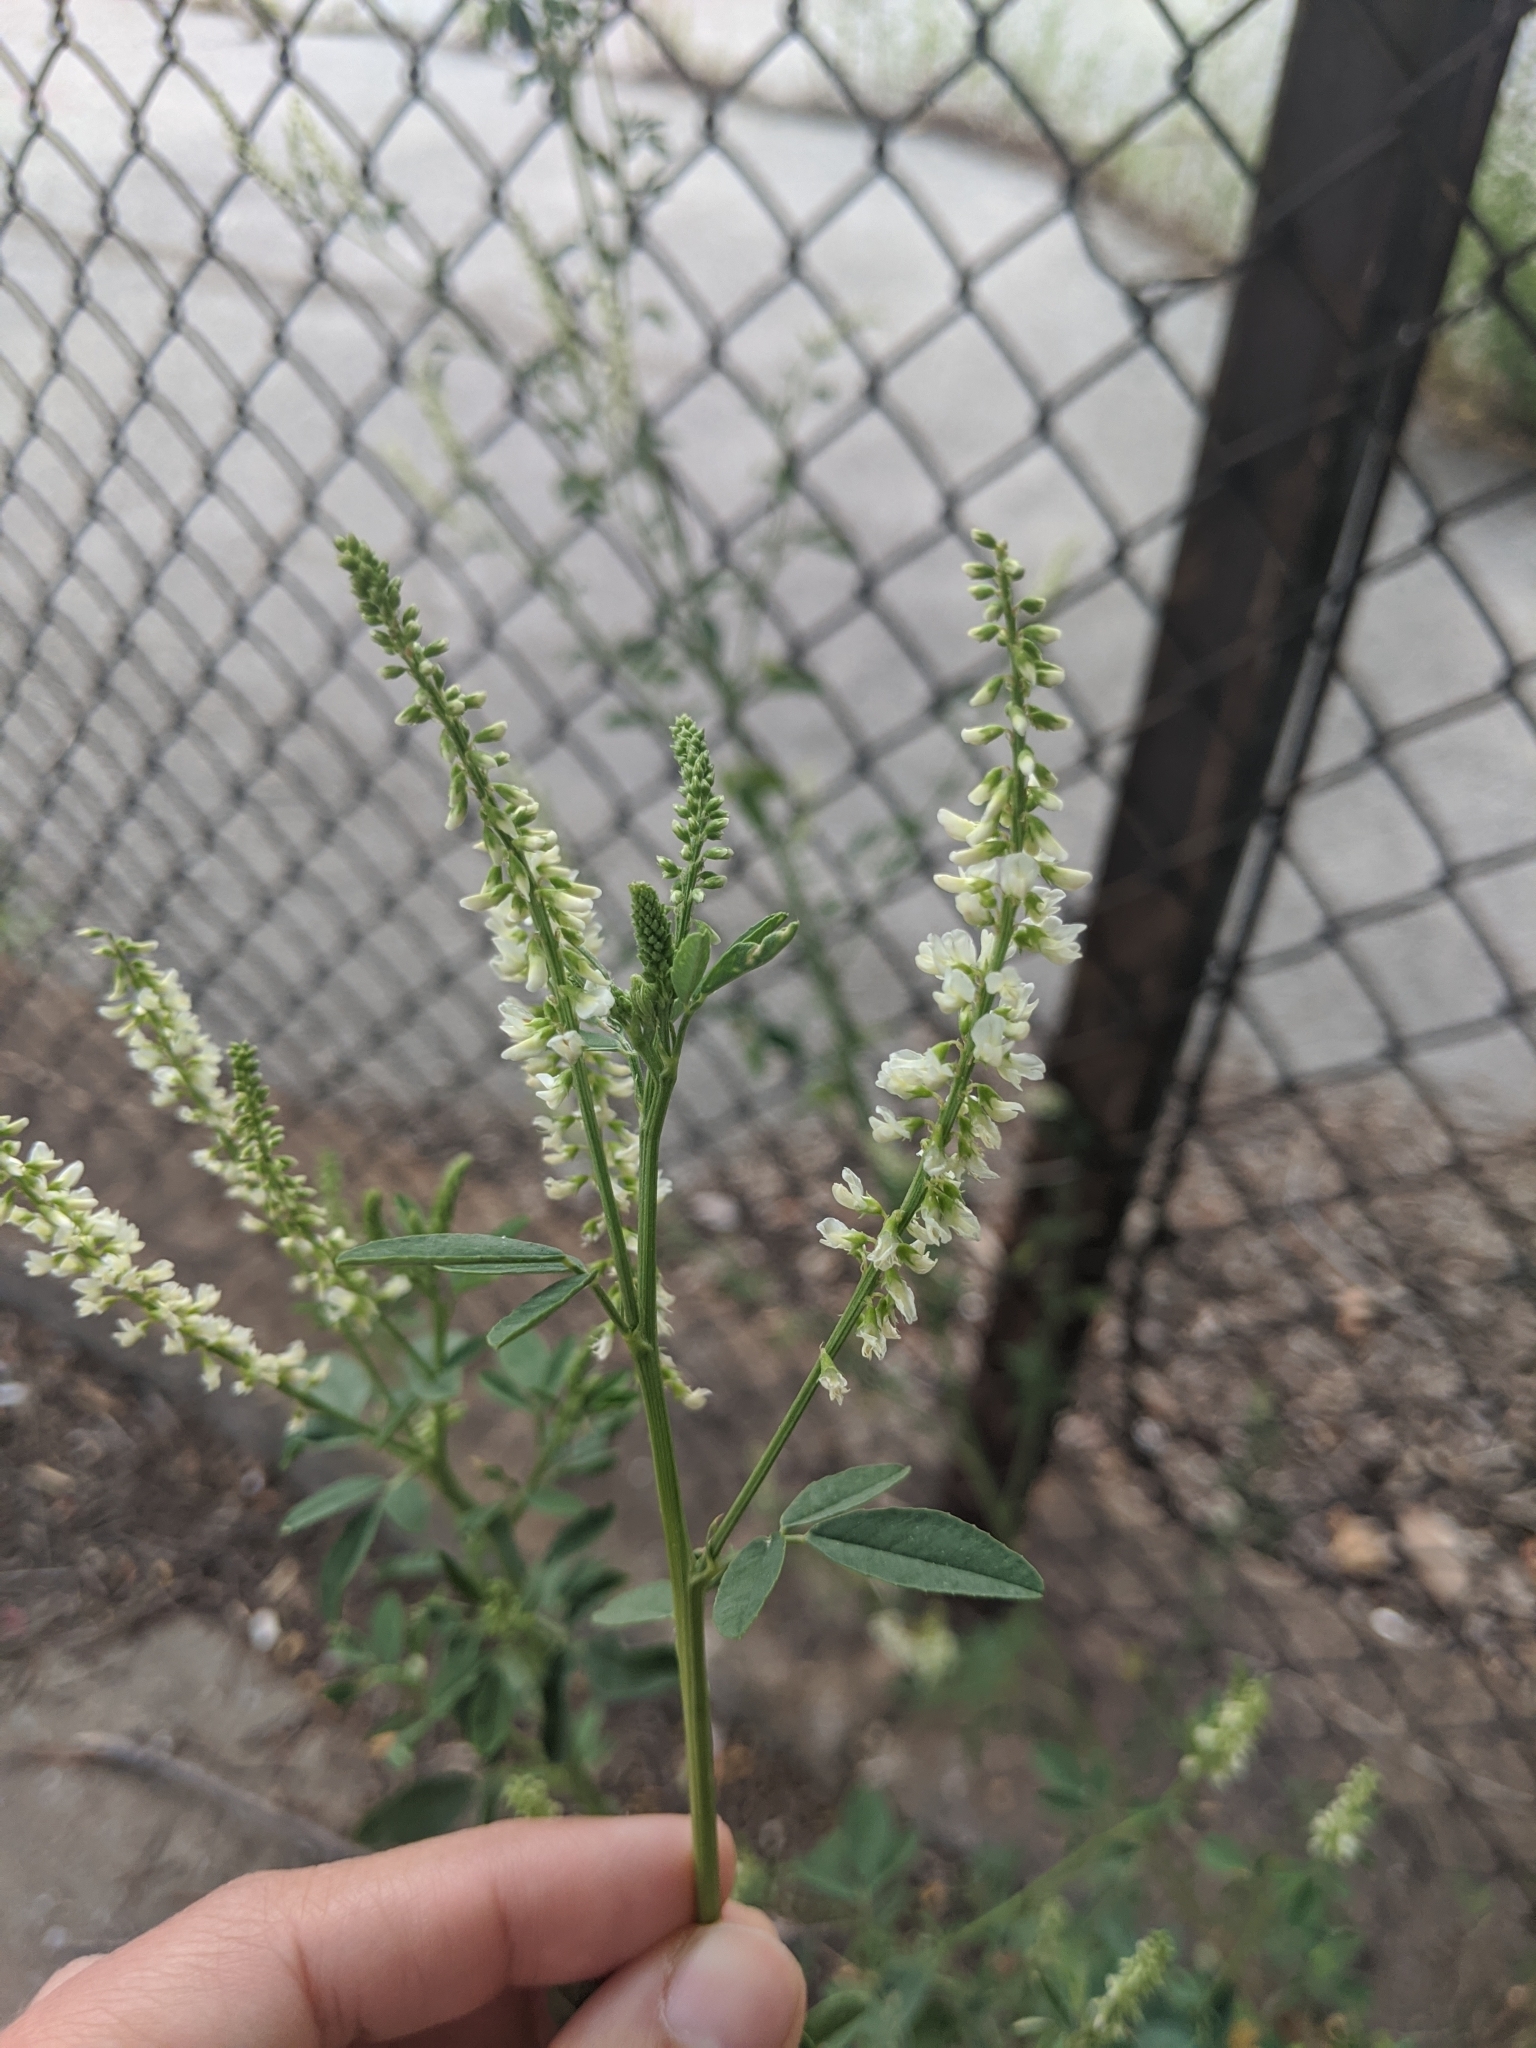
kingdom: Plantae
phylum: Tracheophyta
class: Magnoliopsida
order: Fabales
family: Fabaceae
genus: Melilotus
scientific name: Melilotus albus
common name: White melilot
